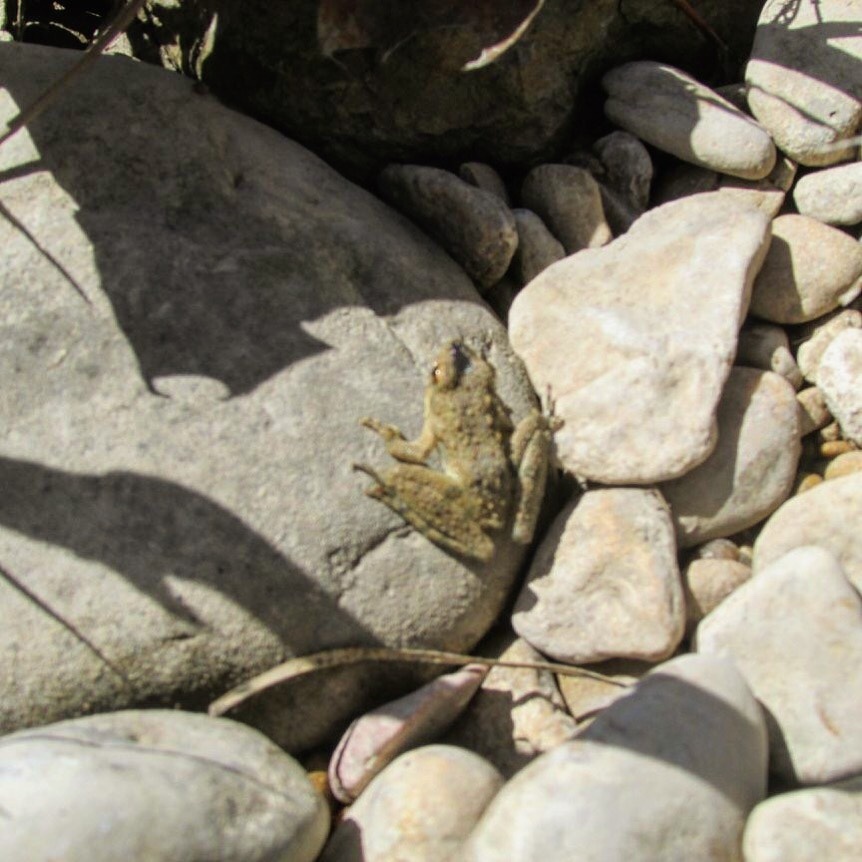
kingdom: Animalia
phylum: Chordata
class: Amphibia
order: Anura
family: Hylidae
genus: Acris
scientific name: Acris blanchardi
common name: Blanchard's cricket frog
